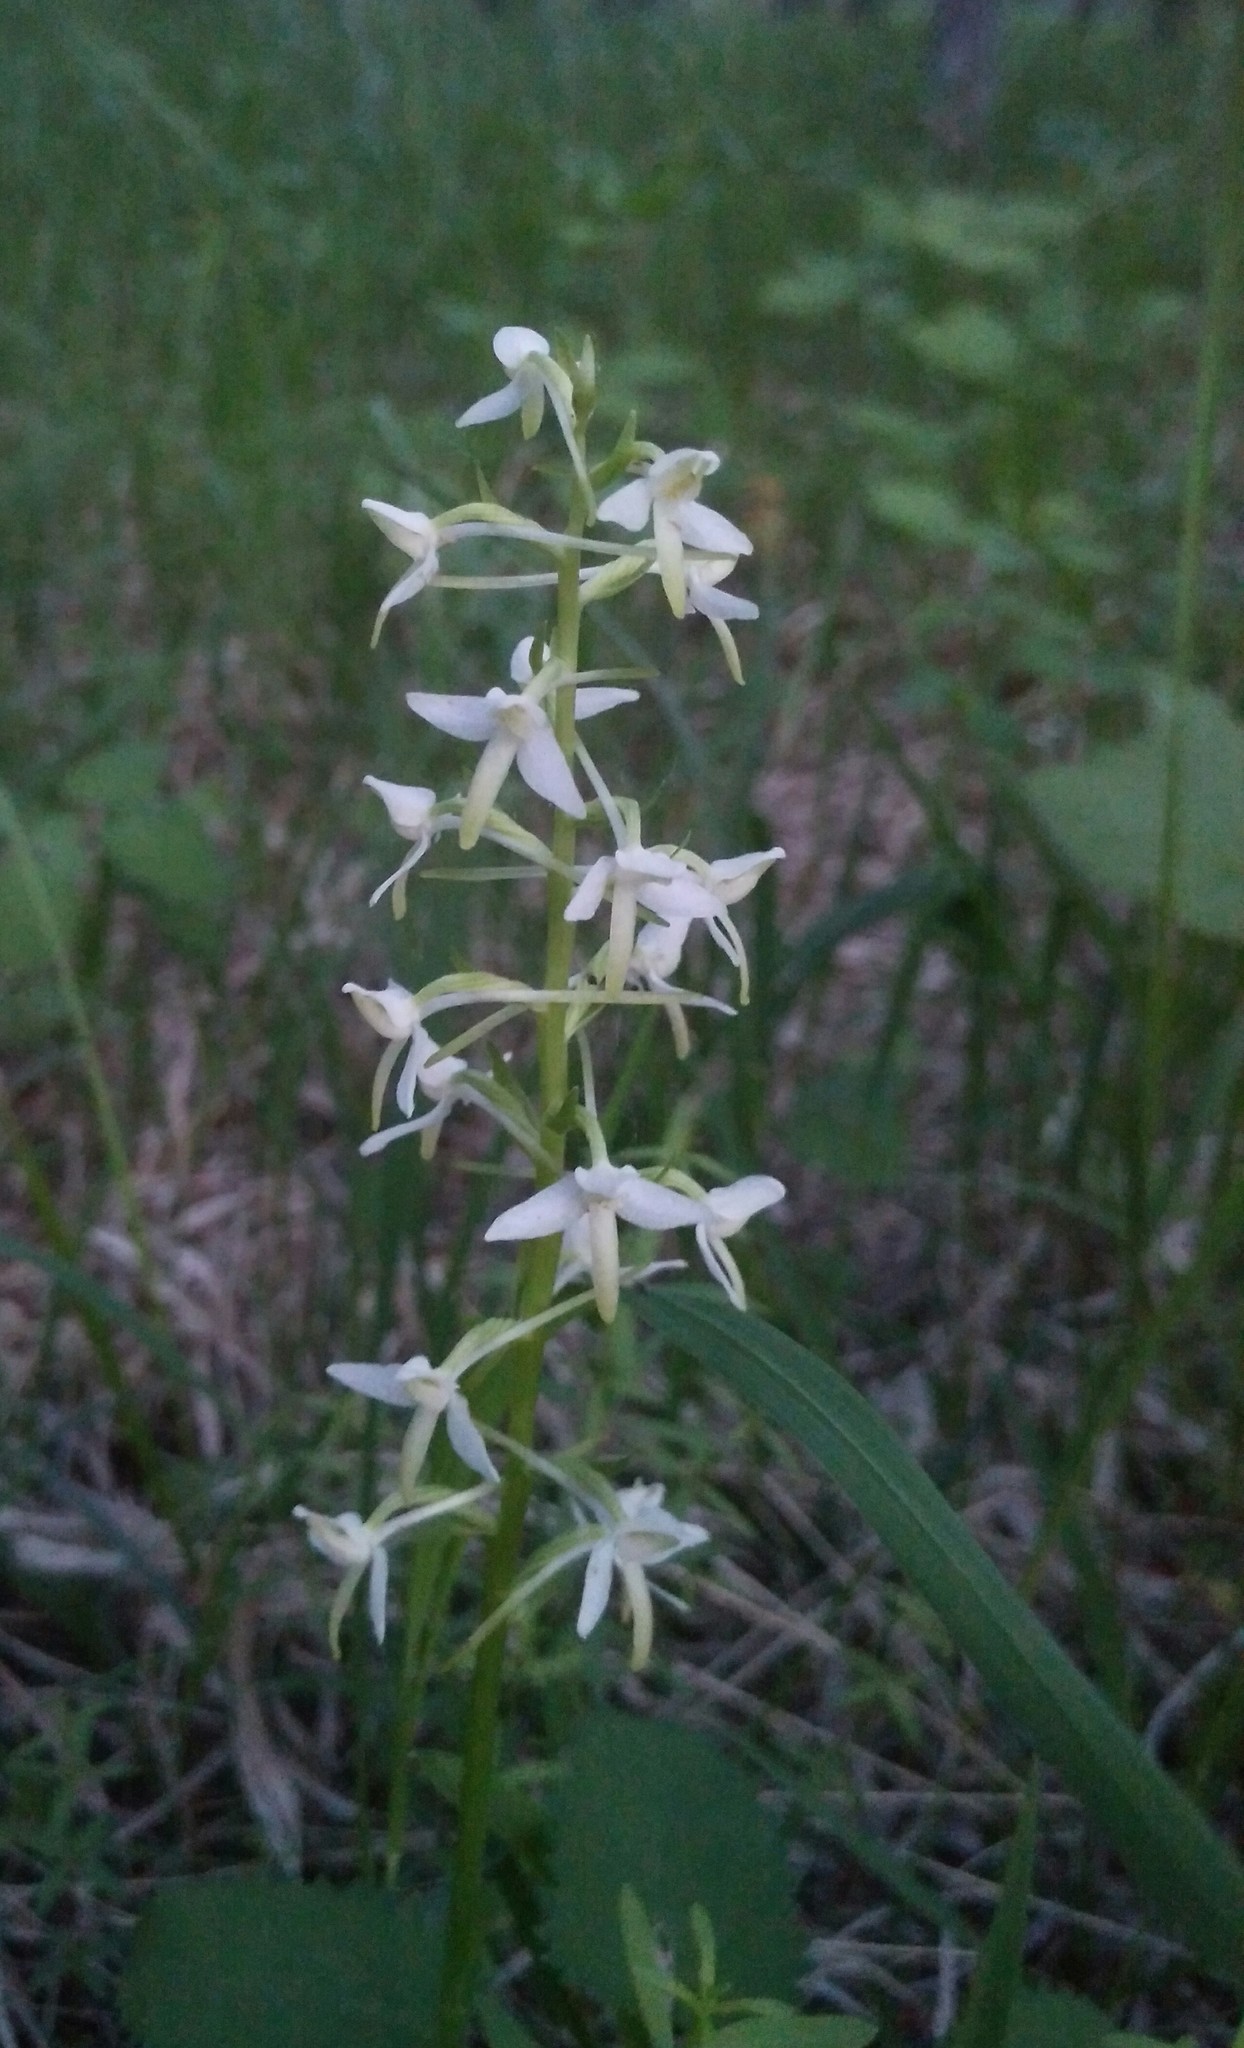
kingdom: Plantae
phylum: Tracheophyta
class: Liliopsida
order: Asparagales
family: Orchidaceae
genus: Platanthera
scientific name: Platanthera bifolia
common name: Lesser butterfly-orchid
